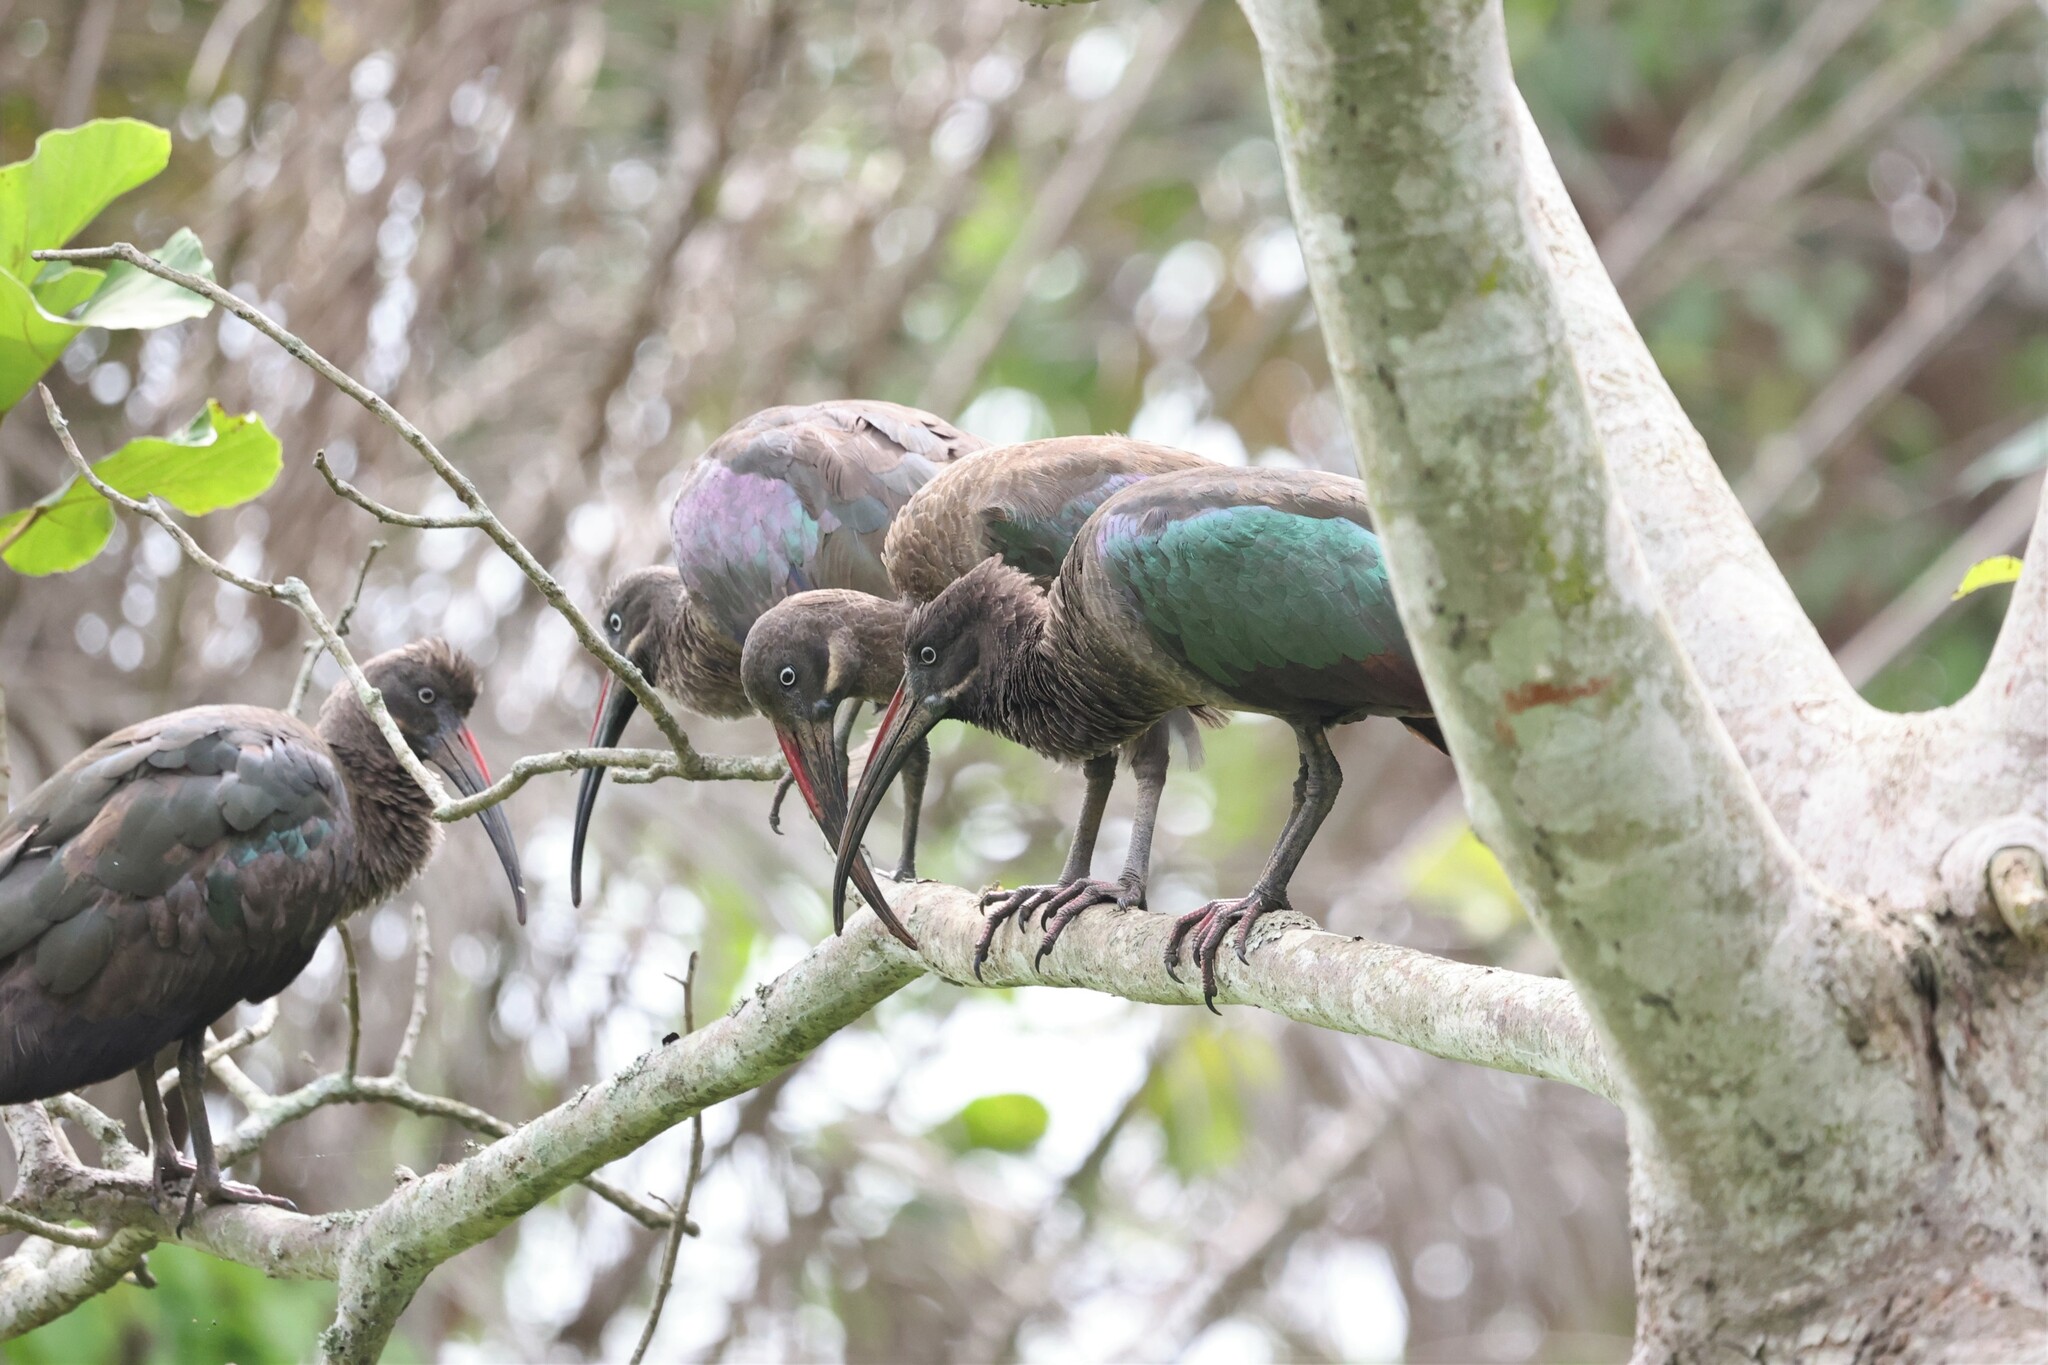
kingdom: Animalia
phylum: Chordata
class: Aves
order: Pelecaniformes
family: Threskiornithidae
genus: Bostrychia
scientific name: Bostrychia hagedash
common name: Hadada ibis
